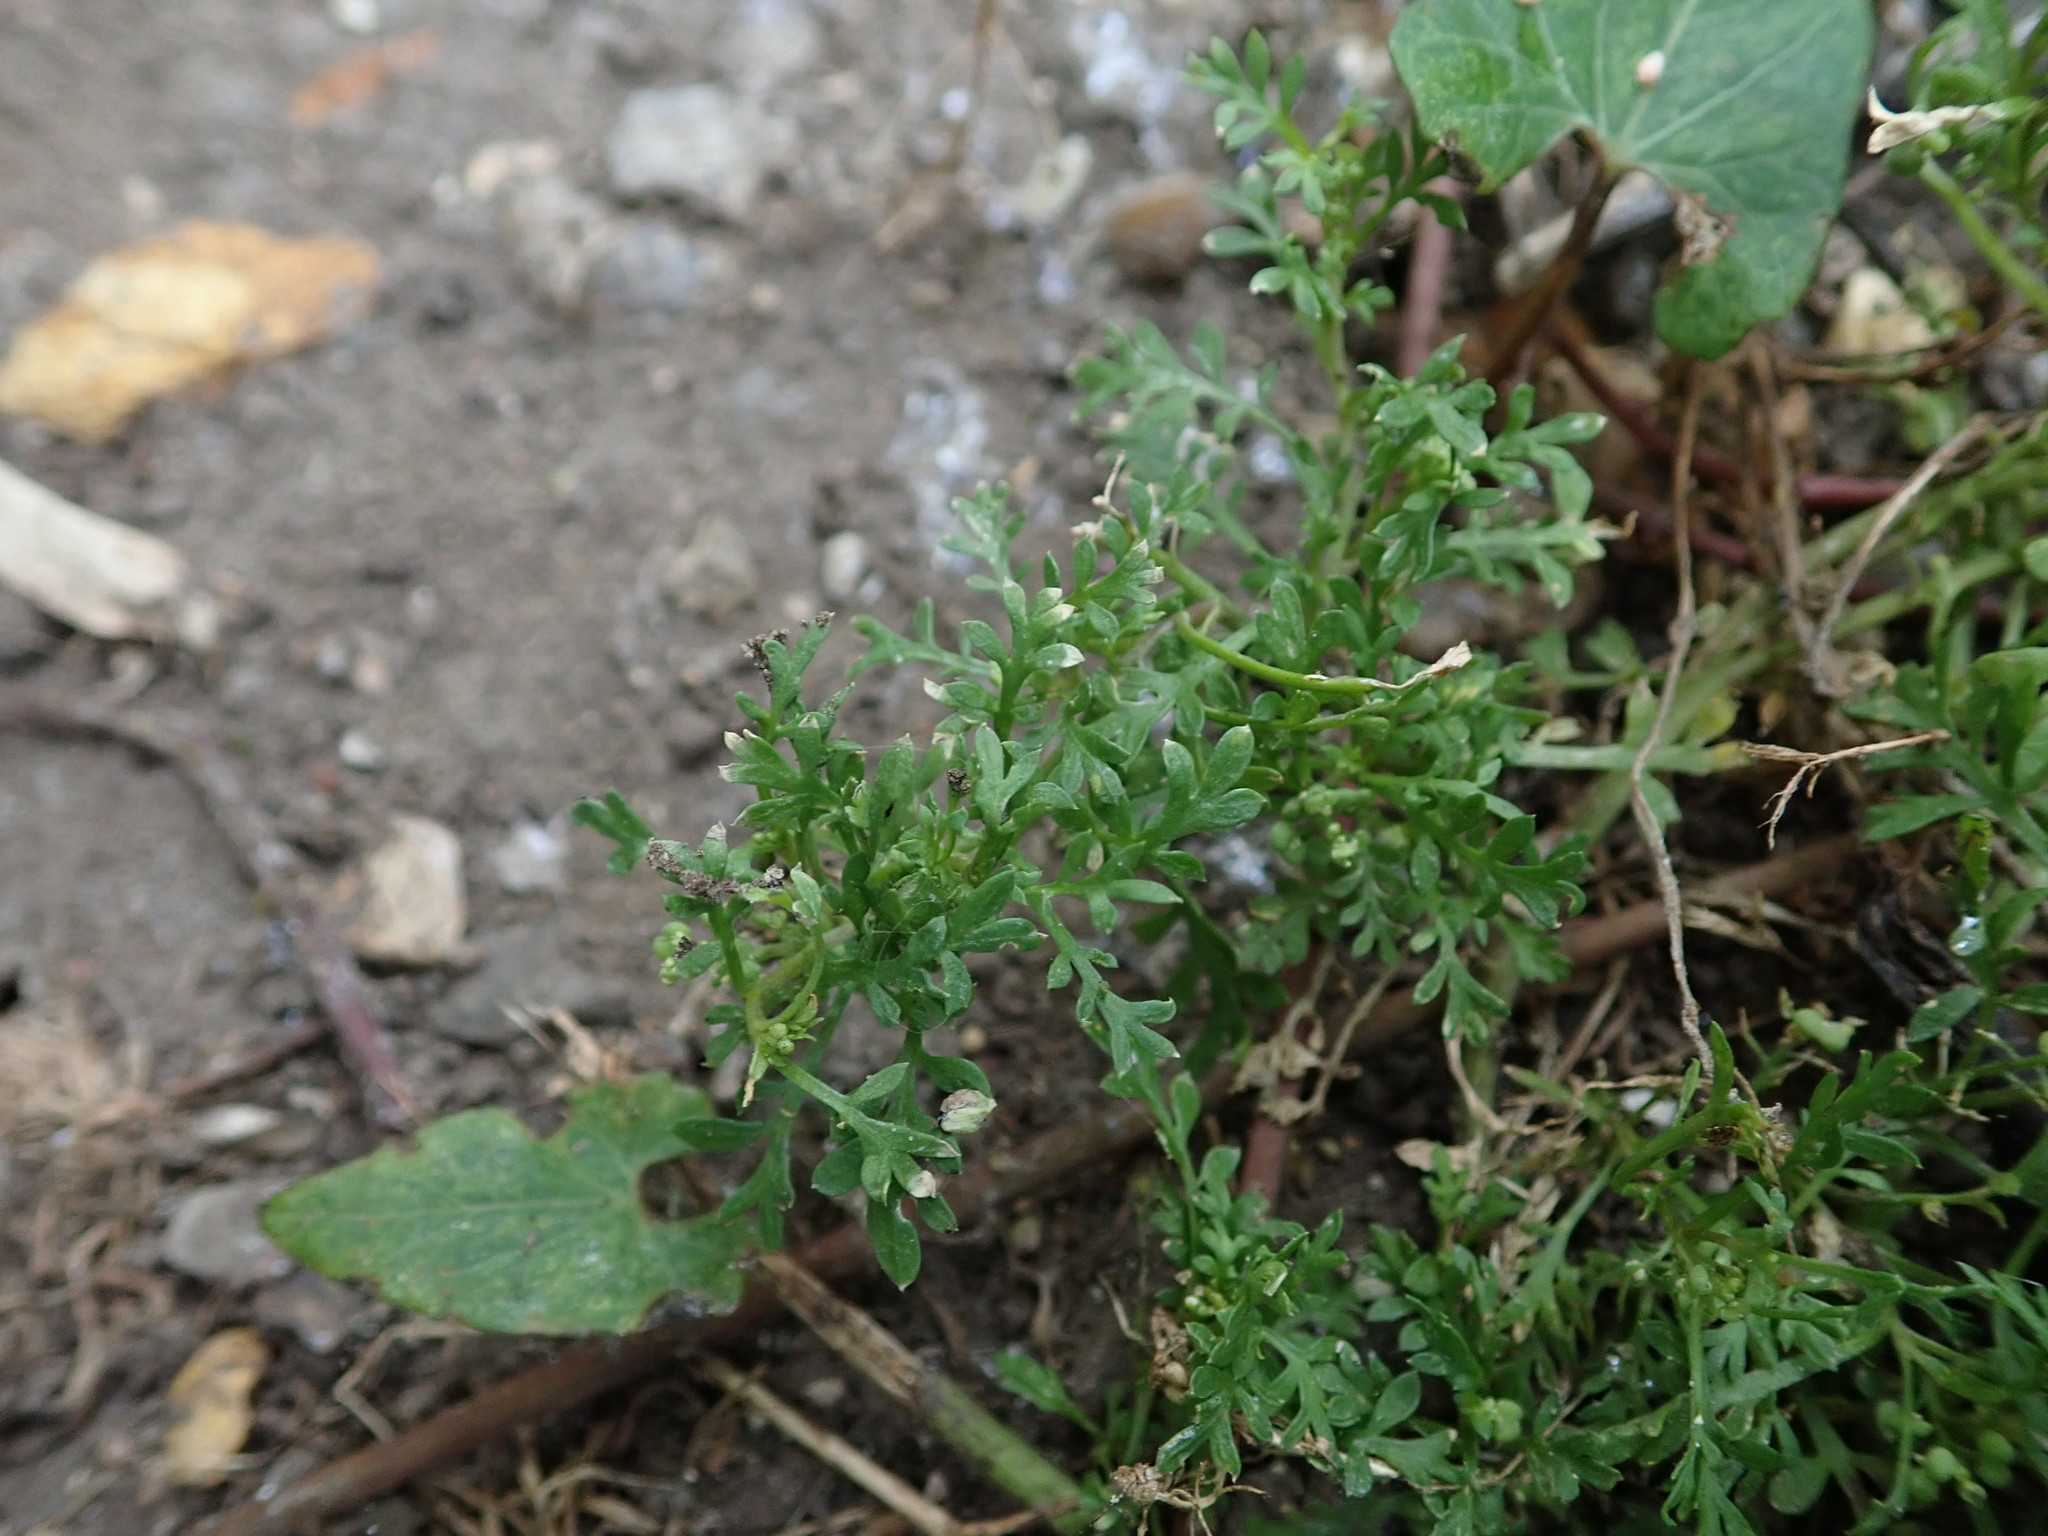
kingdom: Plantae
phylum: Tracheophyta
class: Magnoliopsida
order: Brassicales
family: Brassicaceae
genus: Lepidium
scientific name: Lepidium didymum
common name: Lesser swinecress
